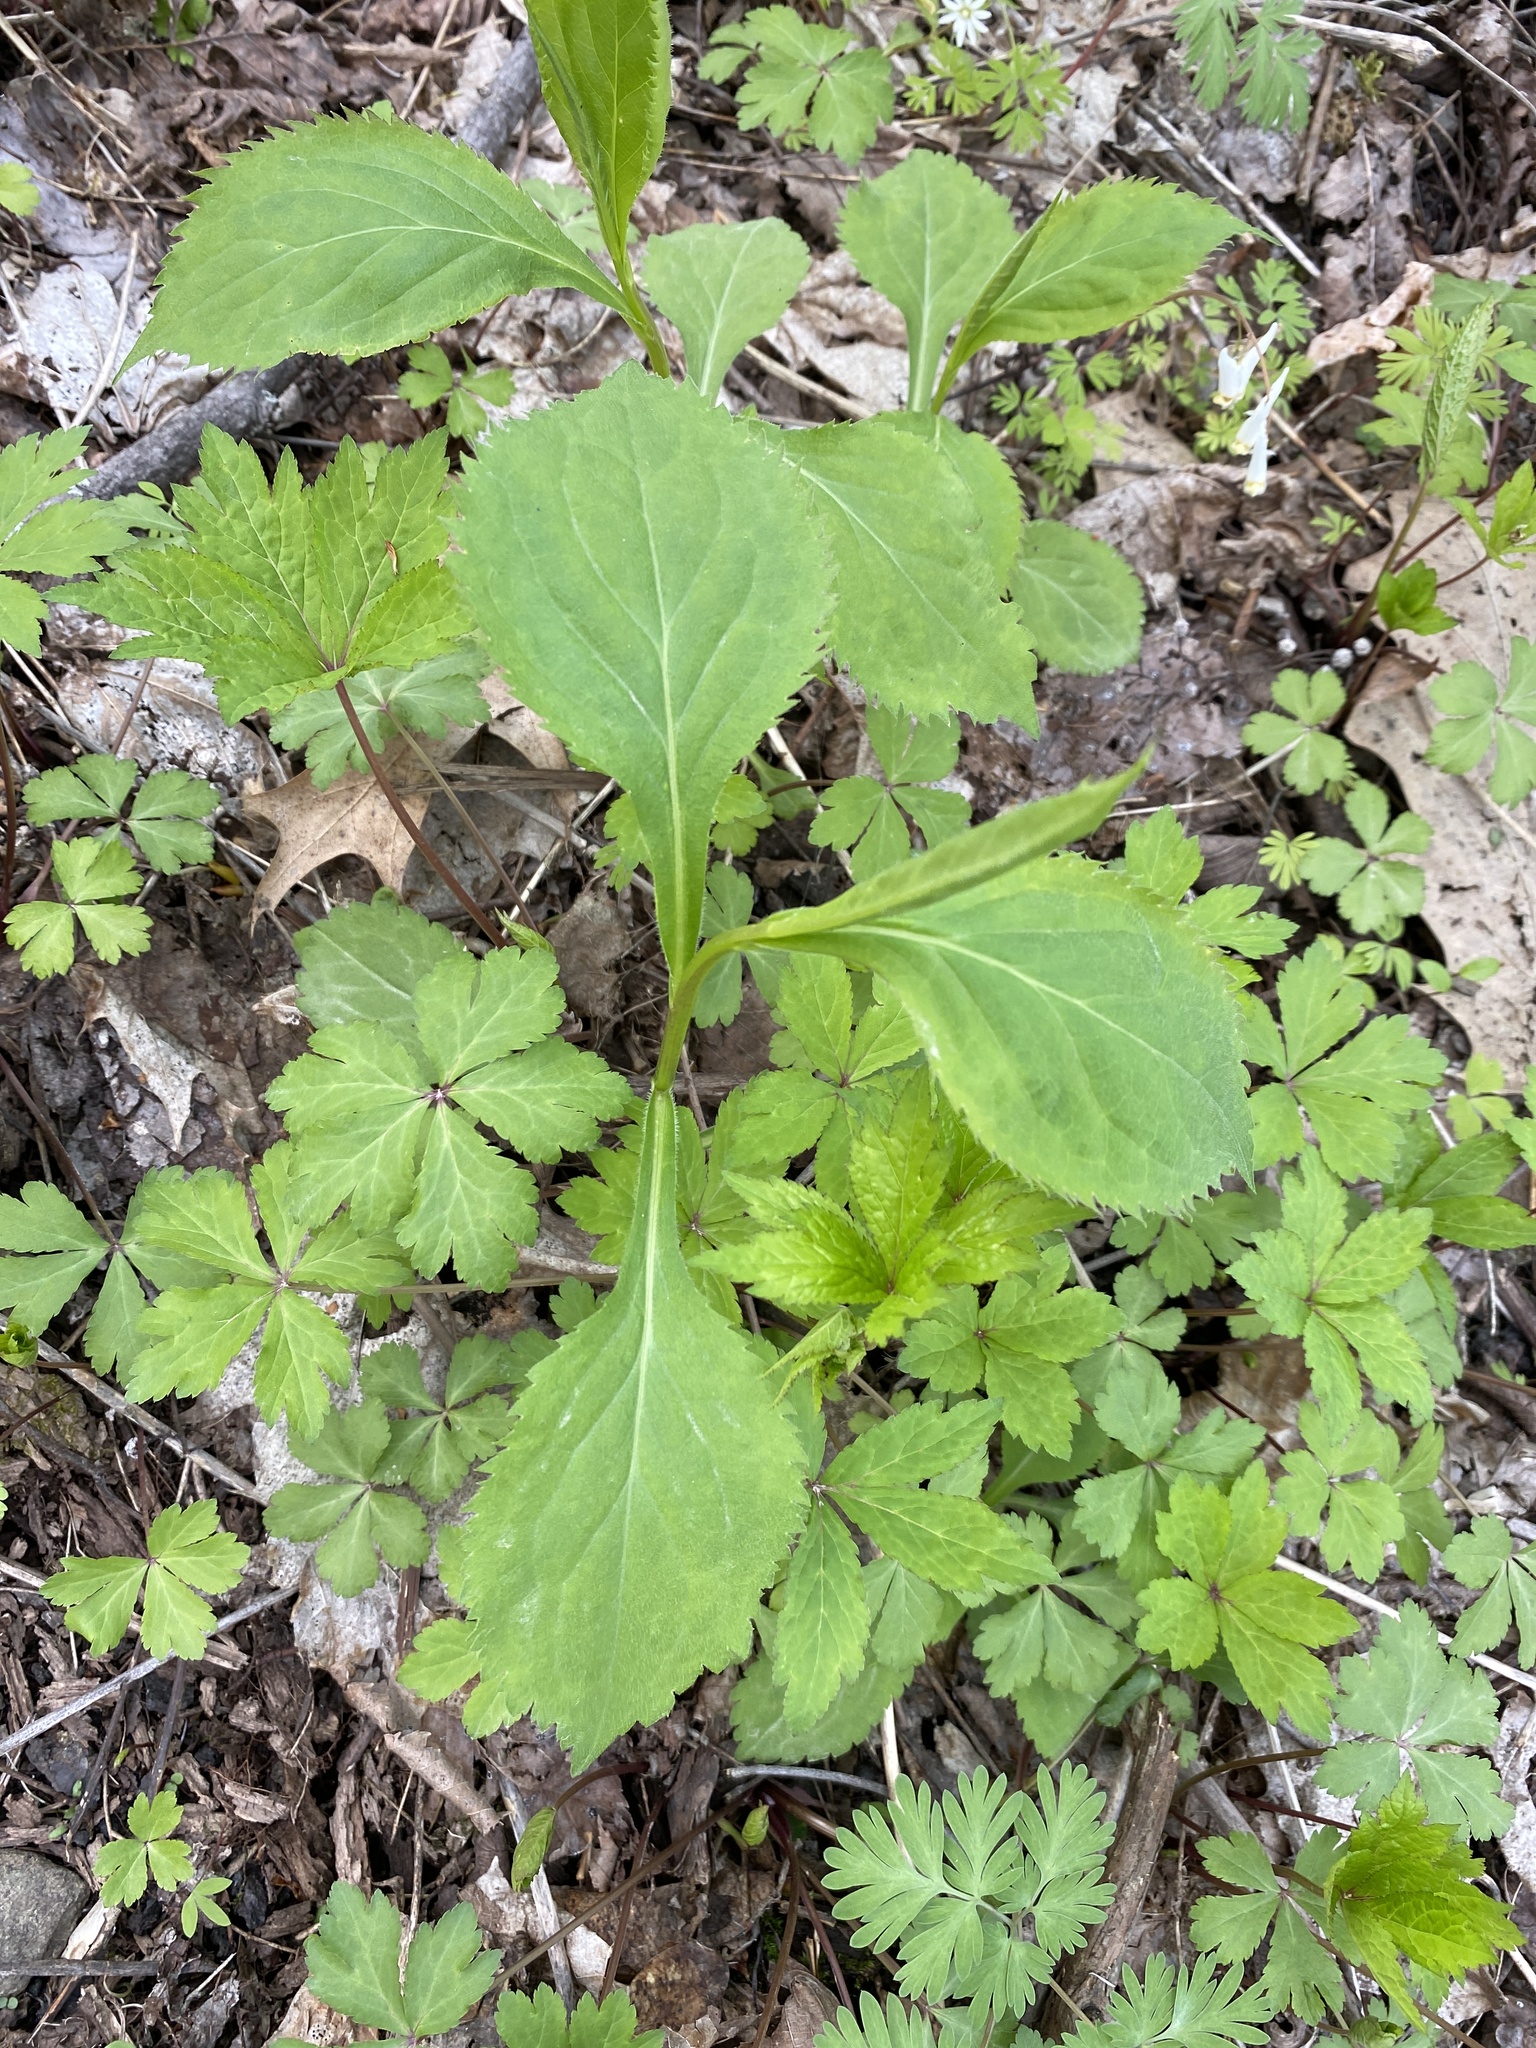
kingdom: Plantae
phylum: Tracheophyta
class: Magnoliopsida
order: Asterales
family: Asteraceae
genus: Solidago
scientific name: Solidago flexicaulis
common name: Zig-zag goldenrod
